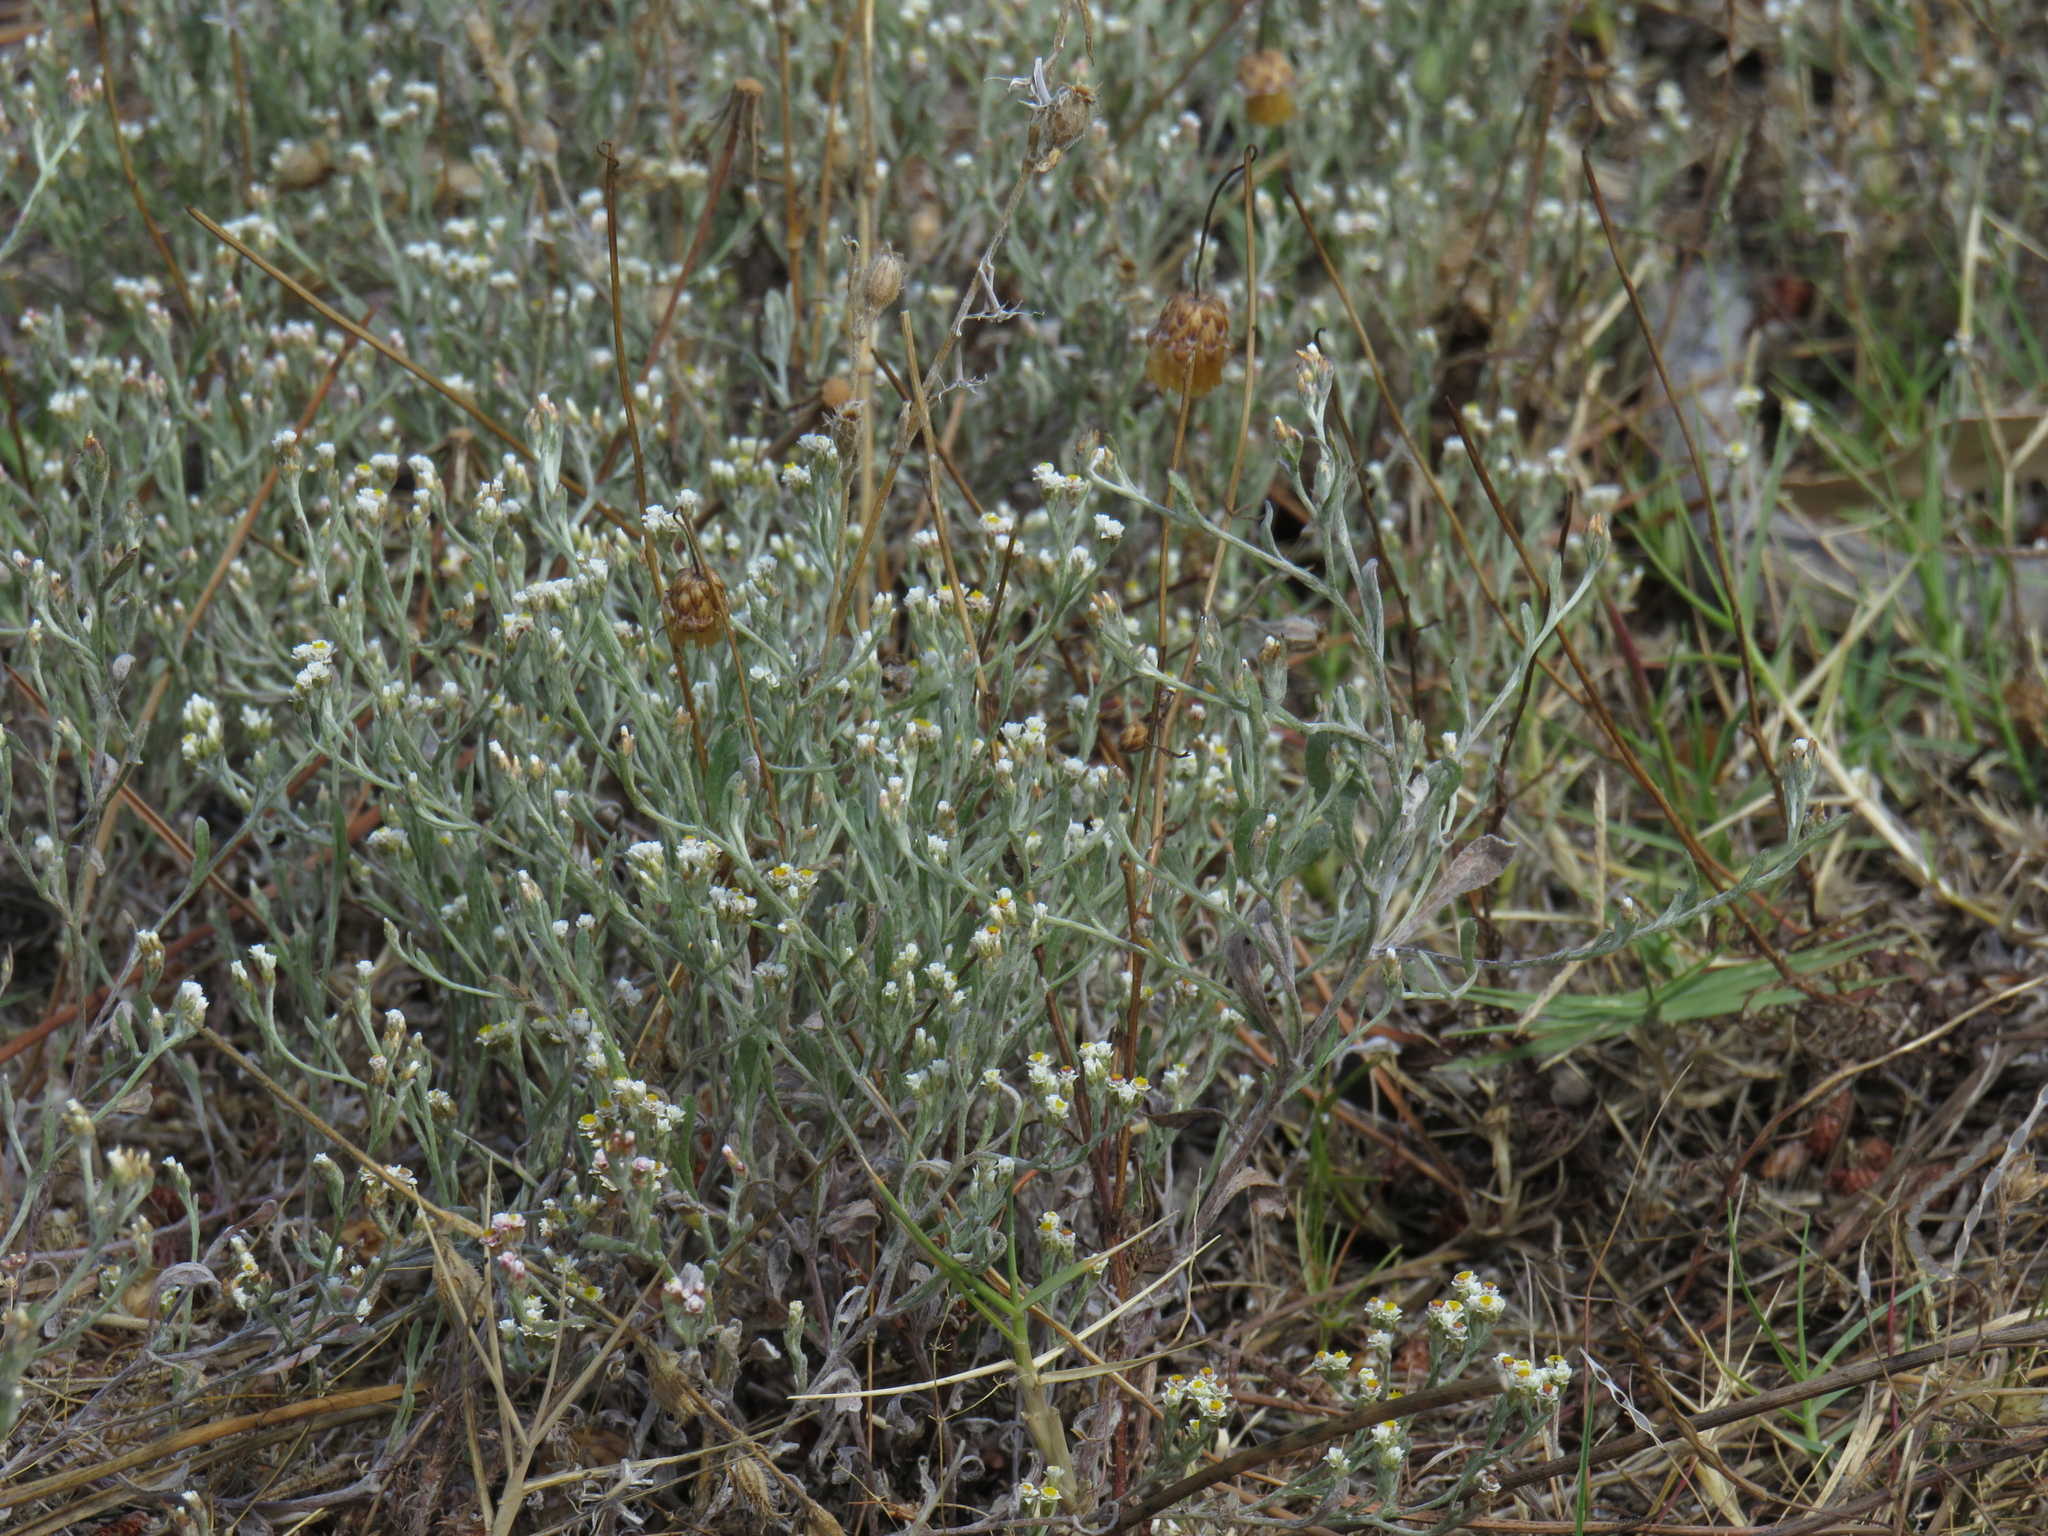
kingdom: Plantae
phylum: Tracheophyta
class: Magnoliopsida
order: Asterales
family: Asteraceae
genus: Helichrysum
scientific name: Helichrysum indicum
